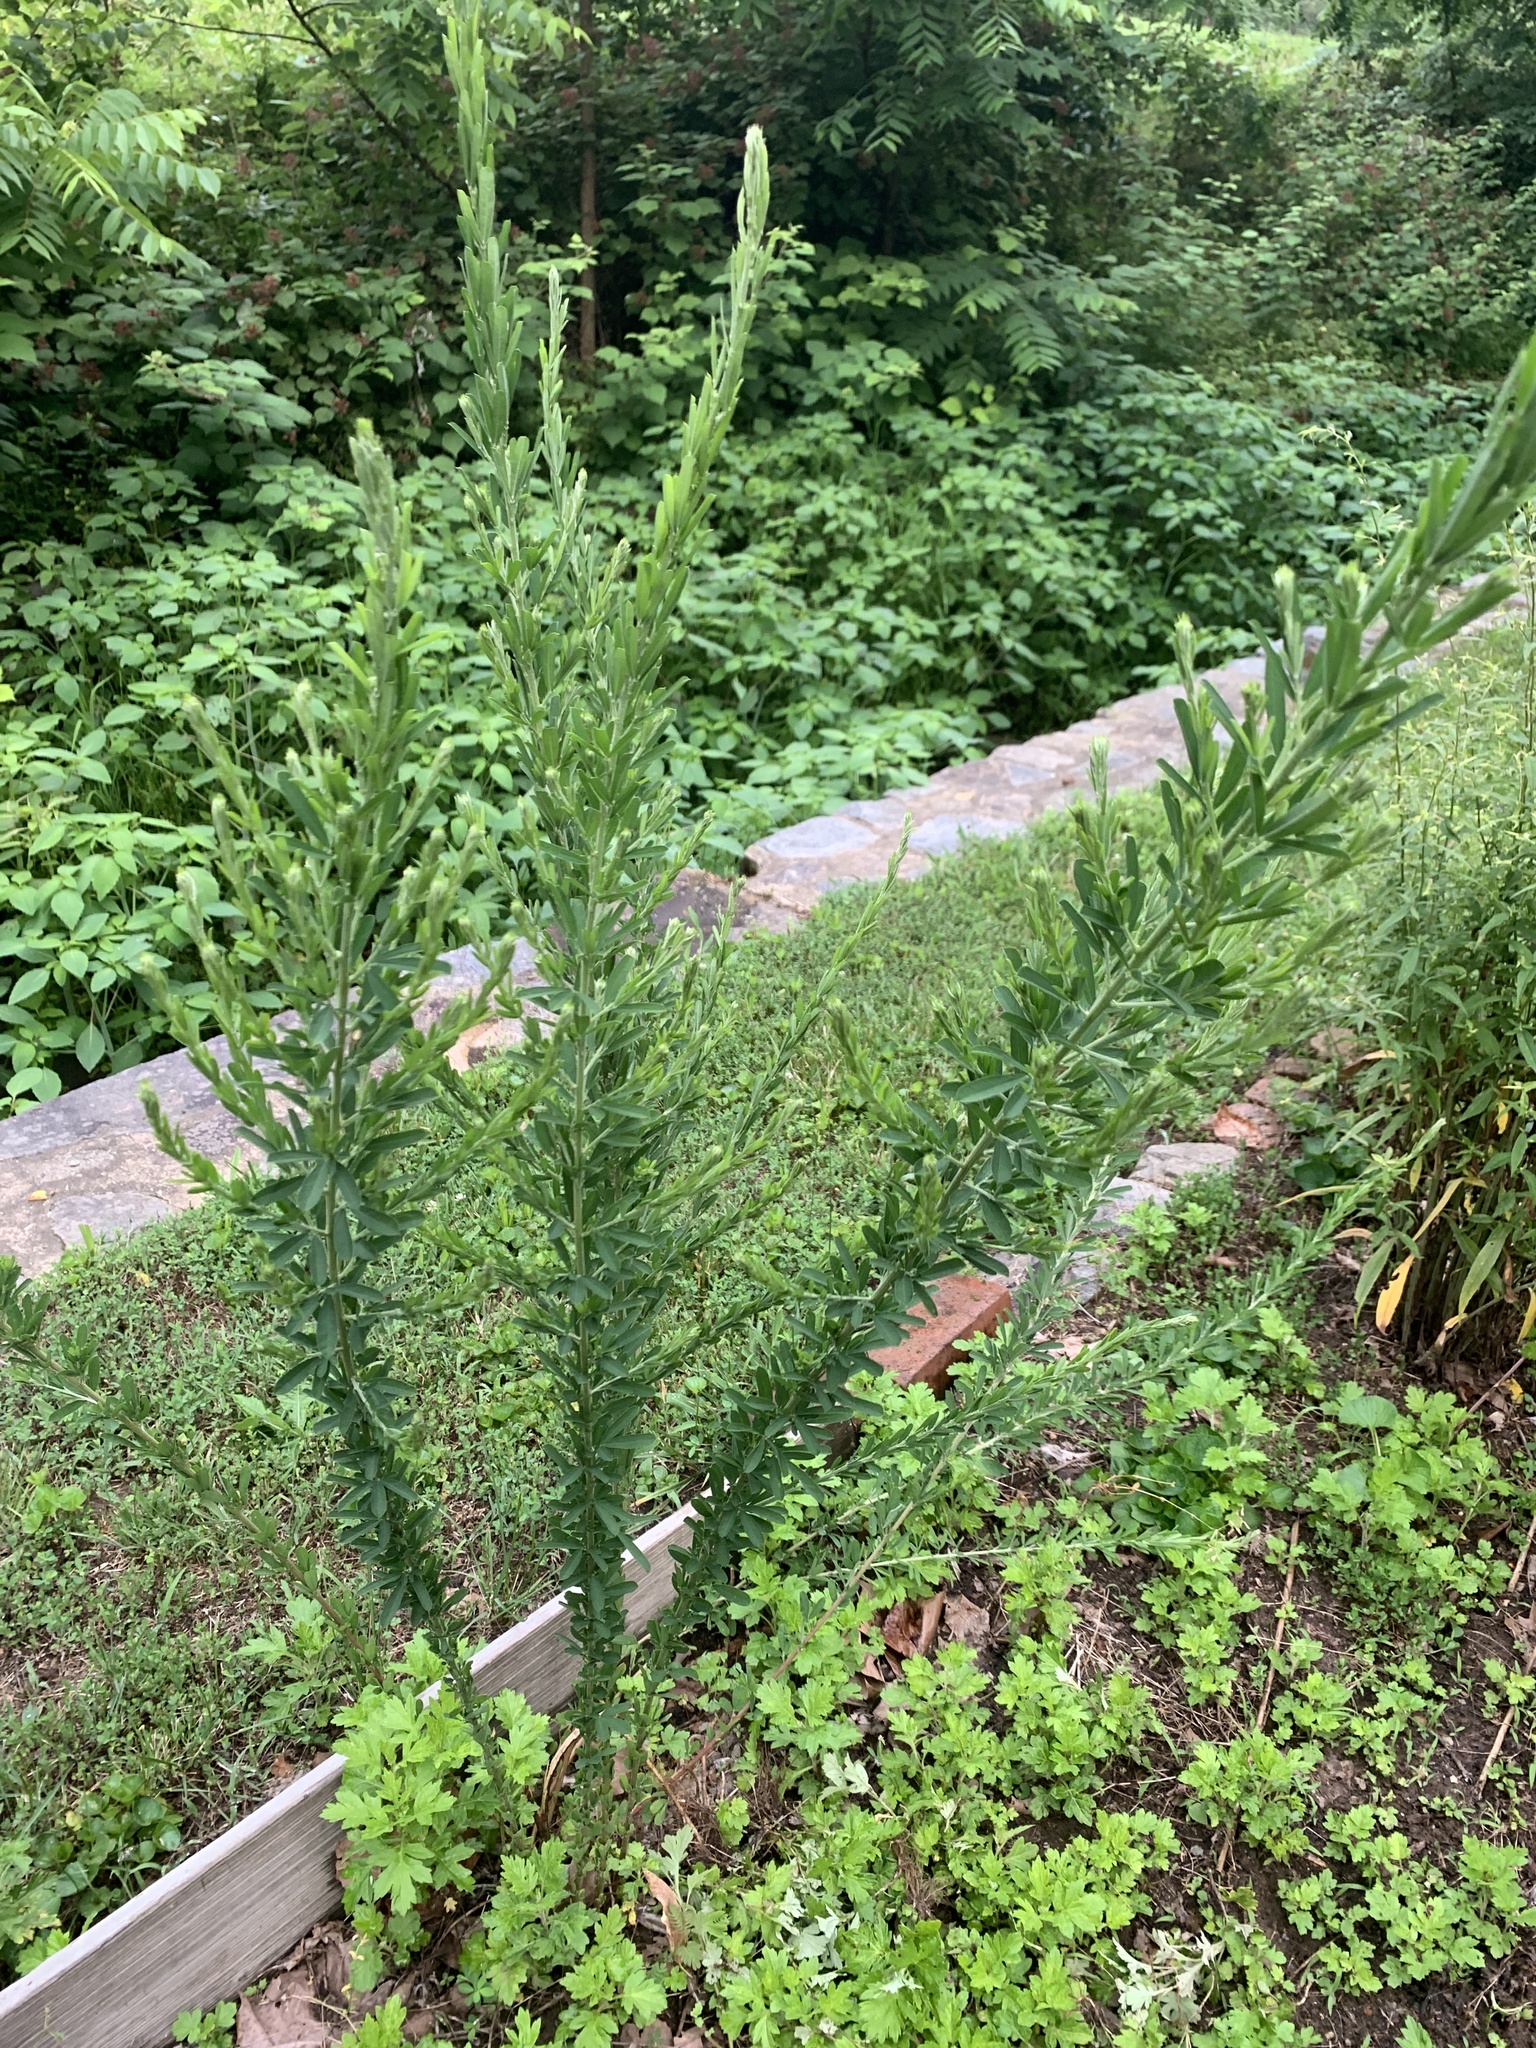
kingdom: Plantae
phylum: Tracheophyta
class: Magnoliopsida
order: Fabales
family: Fabaceae
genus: Lespedeza
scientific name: Lespedeza cuneata
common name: Chinese bush-clover
